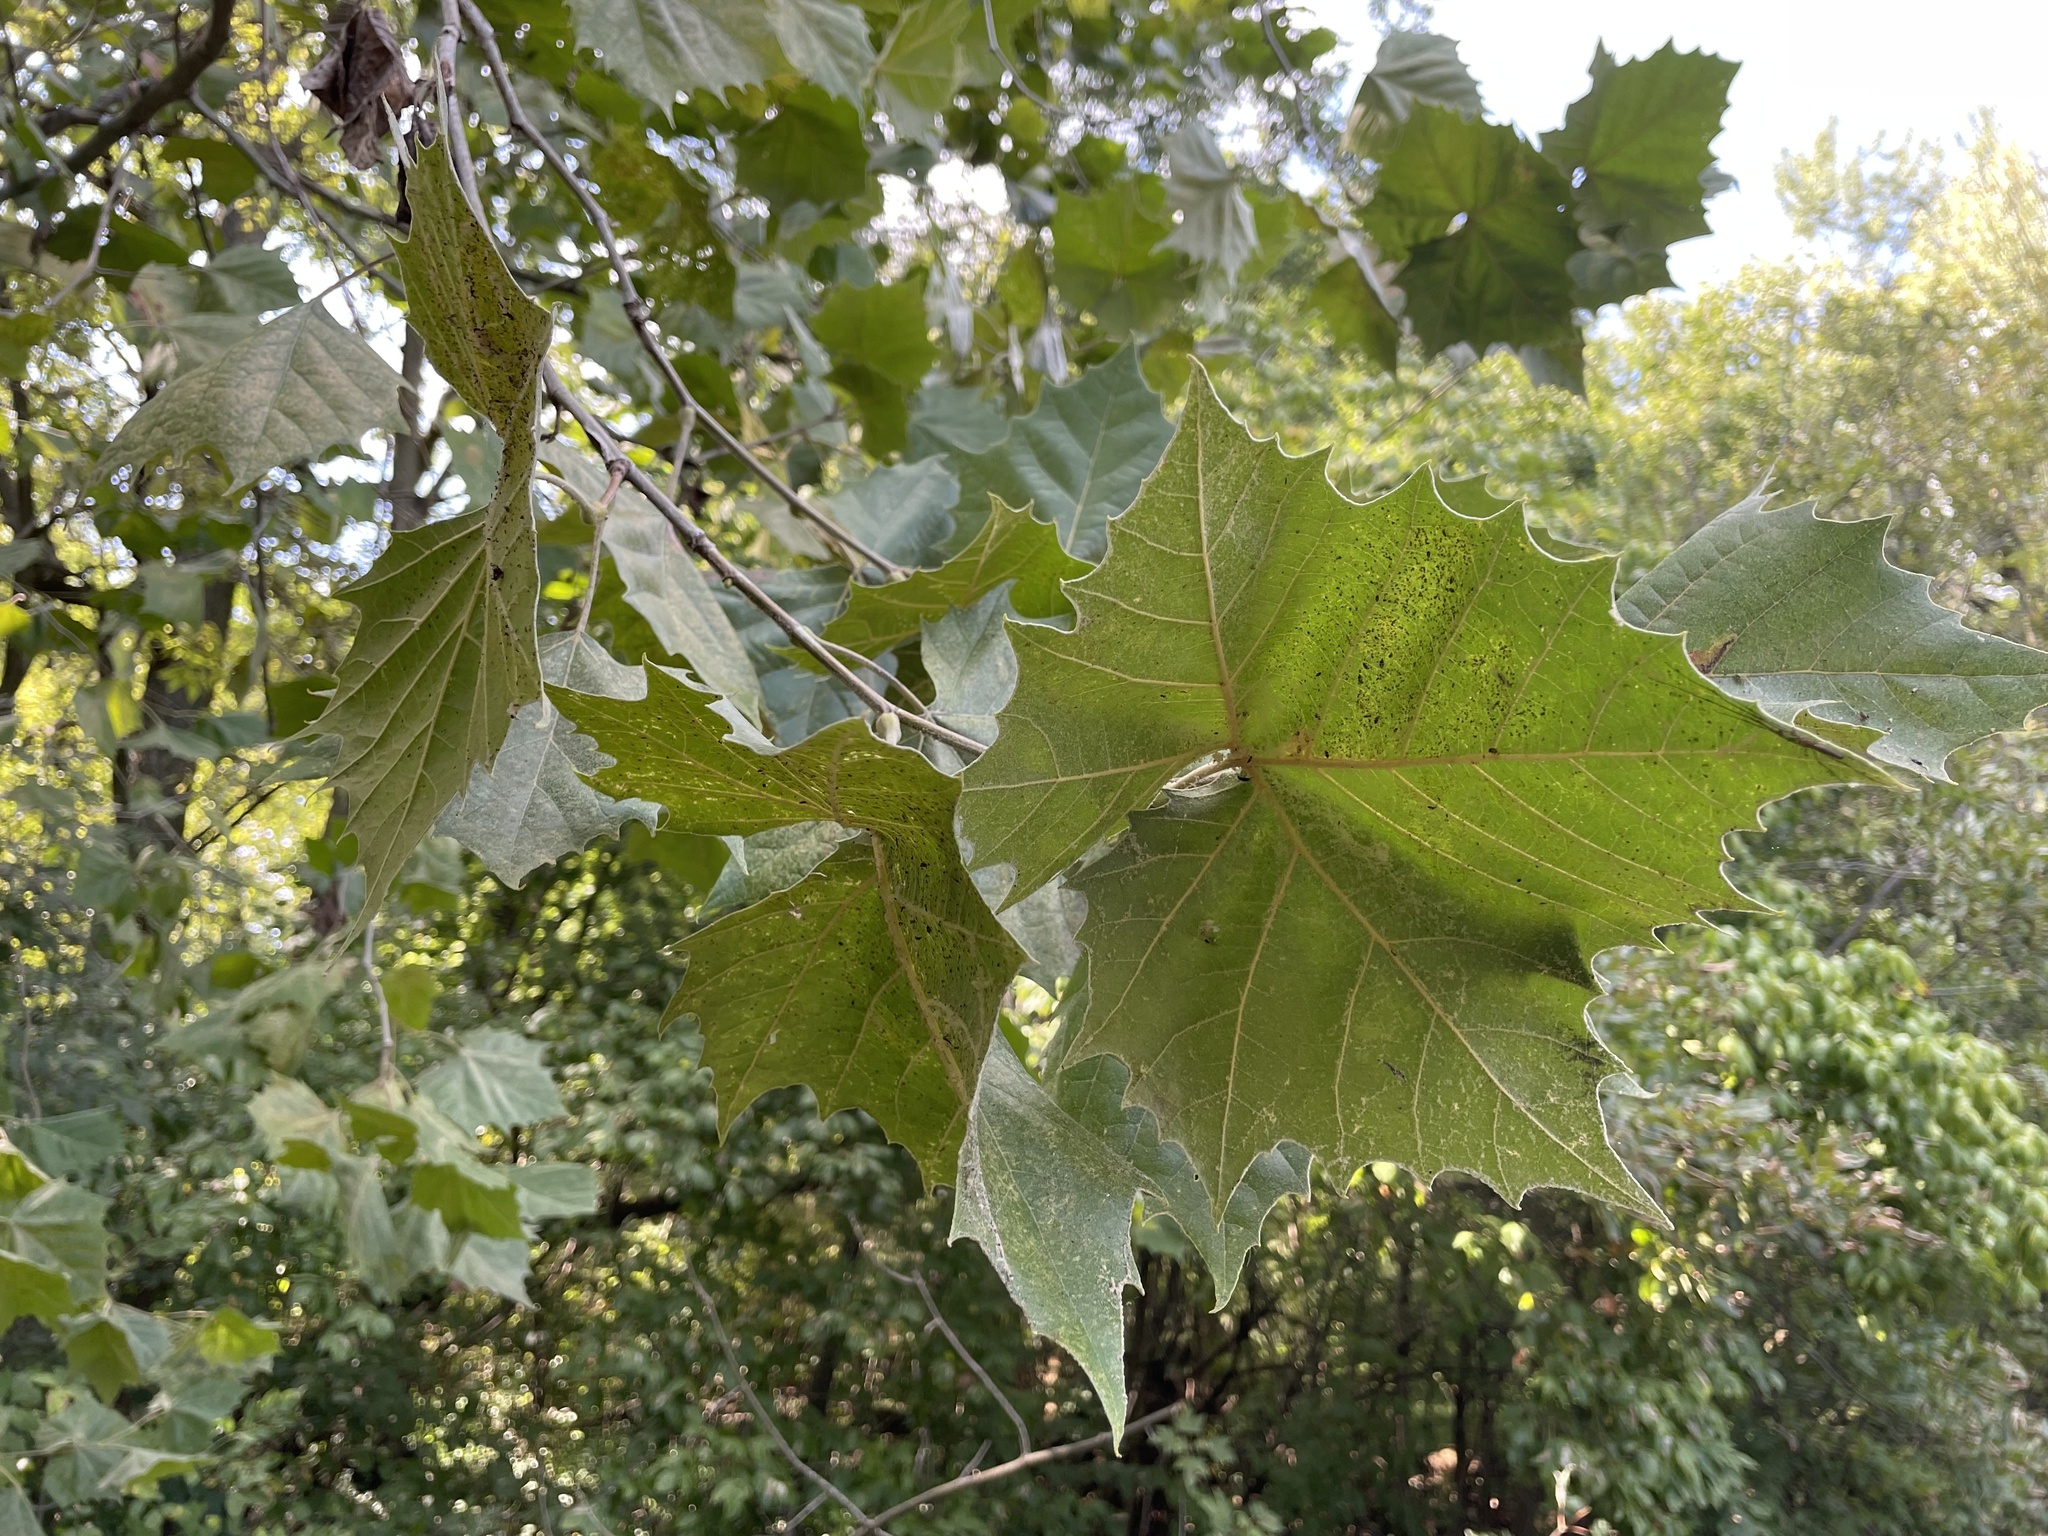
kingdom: Plantae
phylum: Tracheophyta
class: Magnoliopsida
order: Proteales
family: Platanaceae
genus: Platanus
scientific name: Platanus occidentalis
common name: American sycamore
